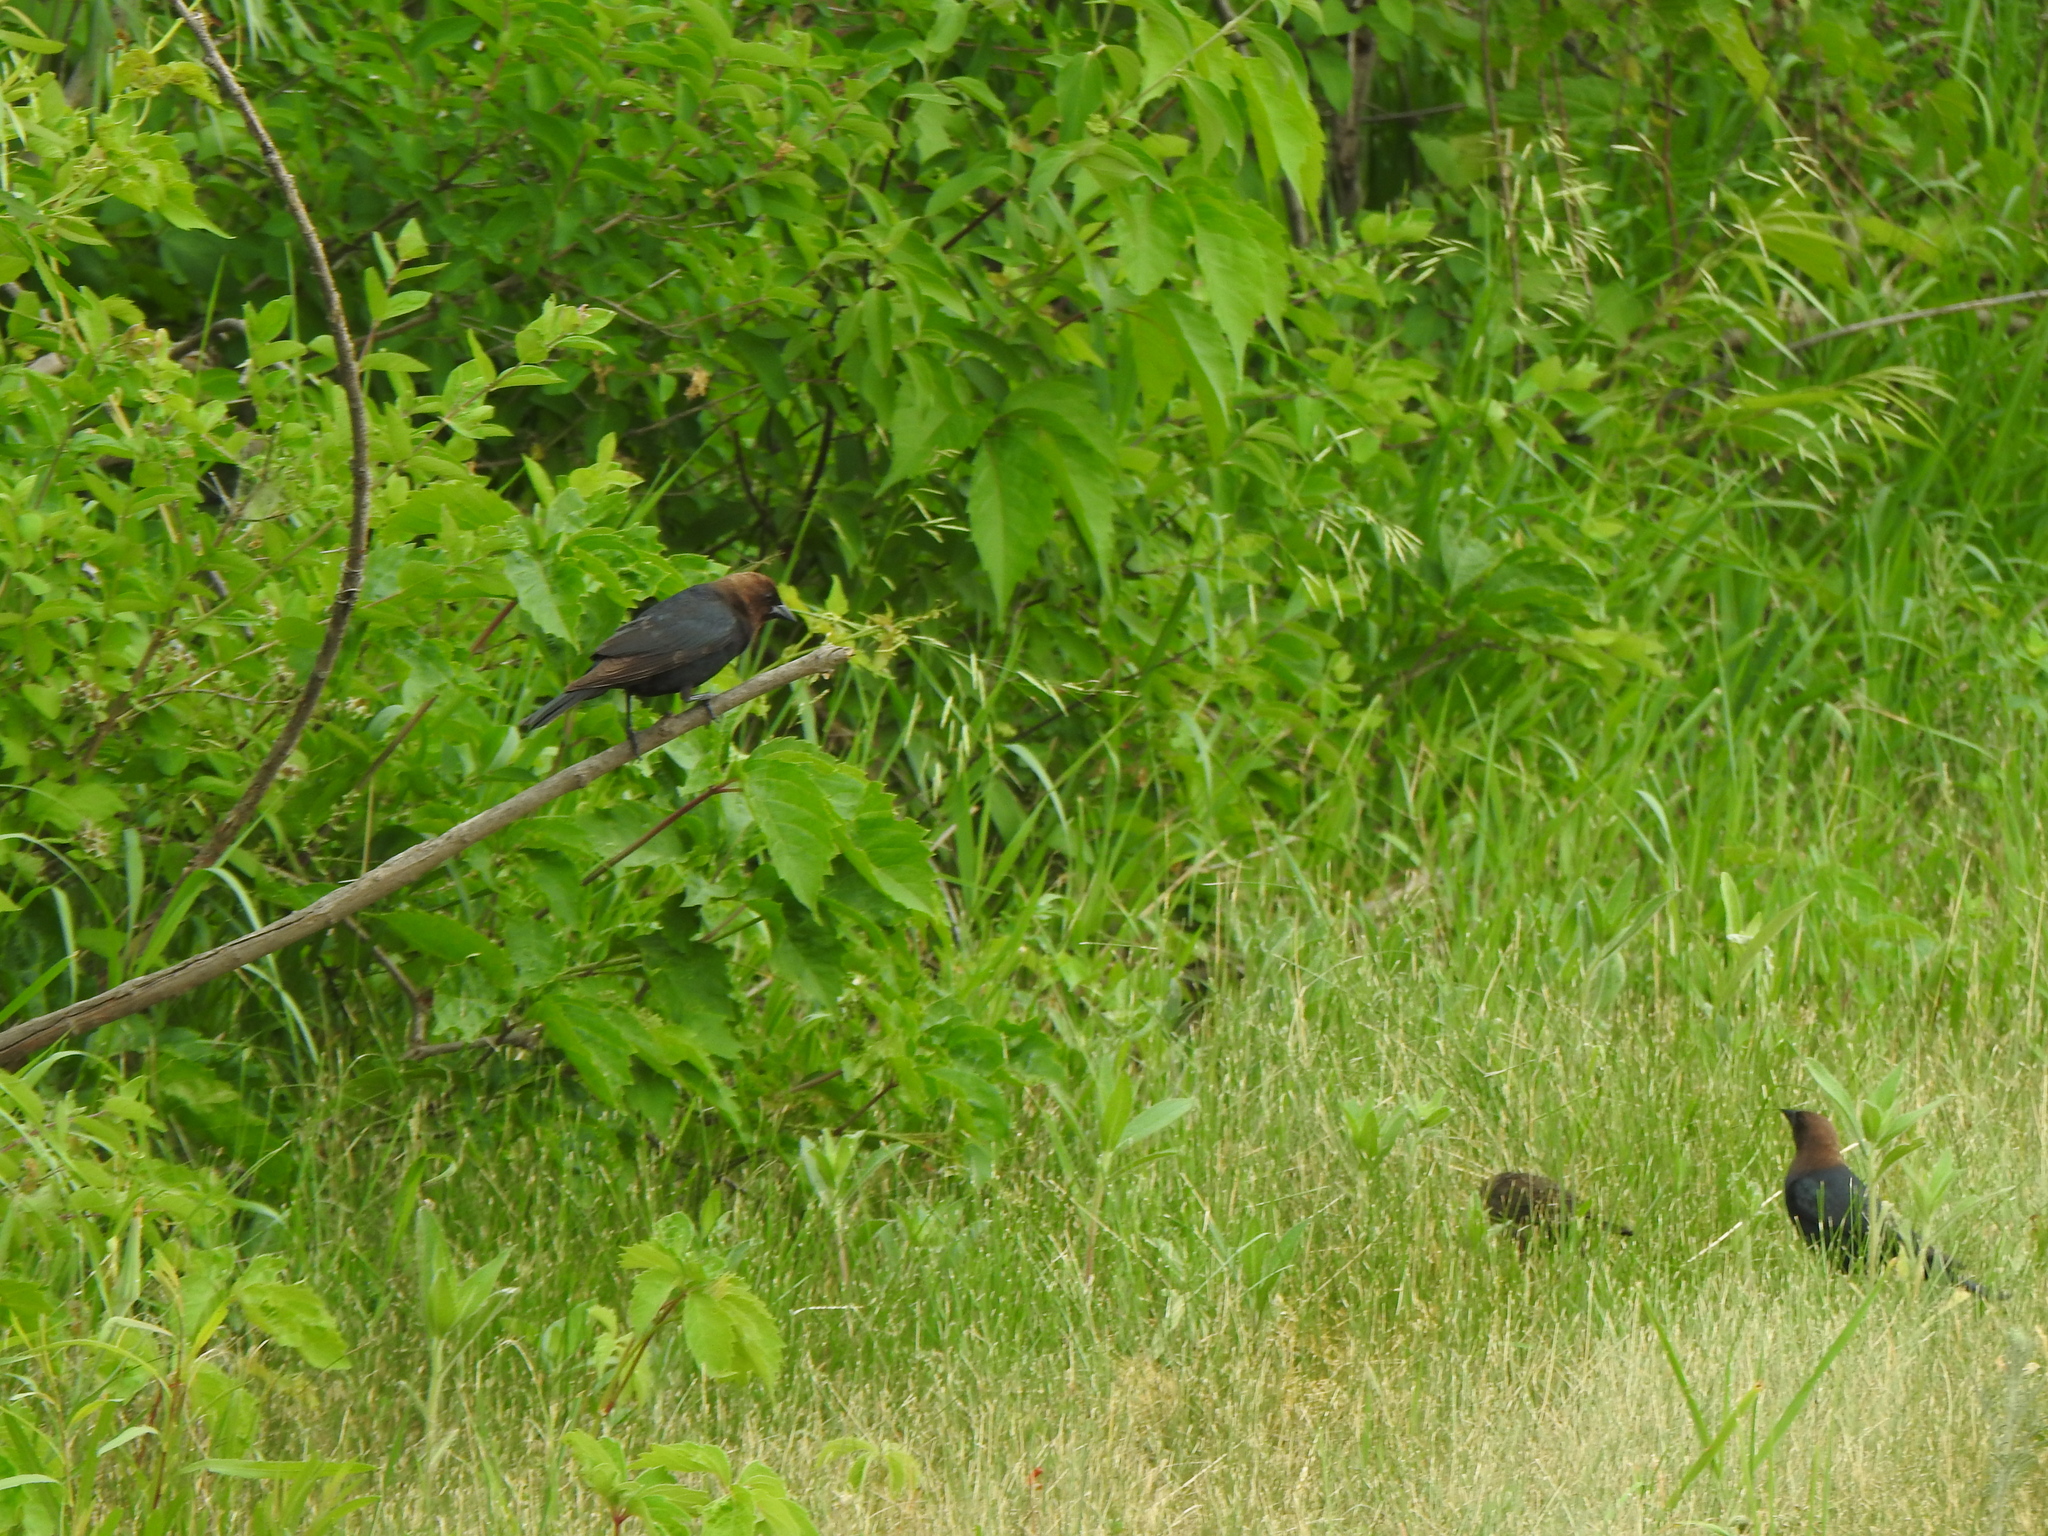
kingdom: Animalia
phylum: Chordata
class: Aves
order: Passeriformes
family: Icteridae
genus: Molothrus
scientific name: Molothrus ater
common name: Brown-headed cowbird
